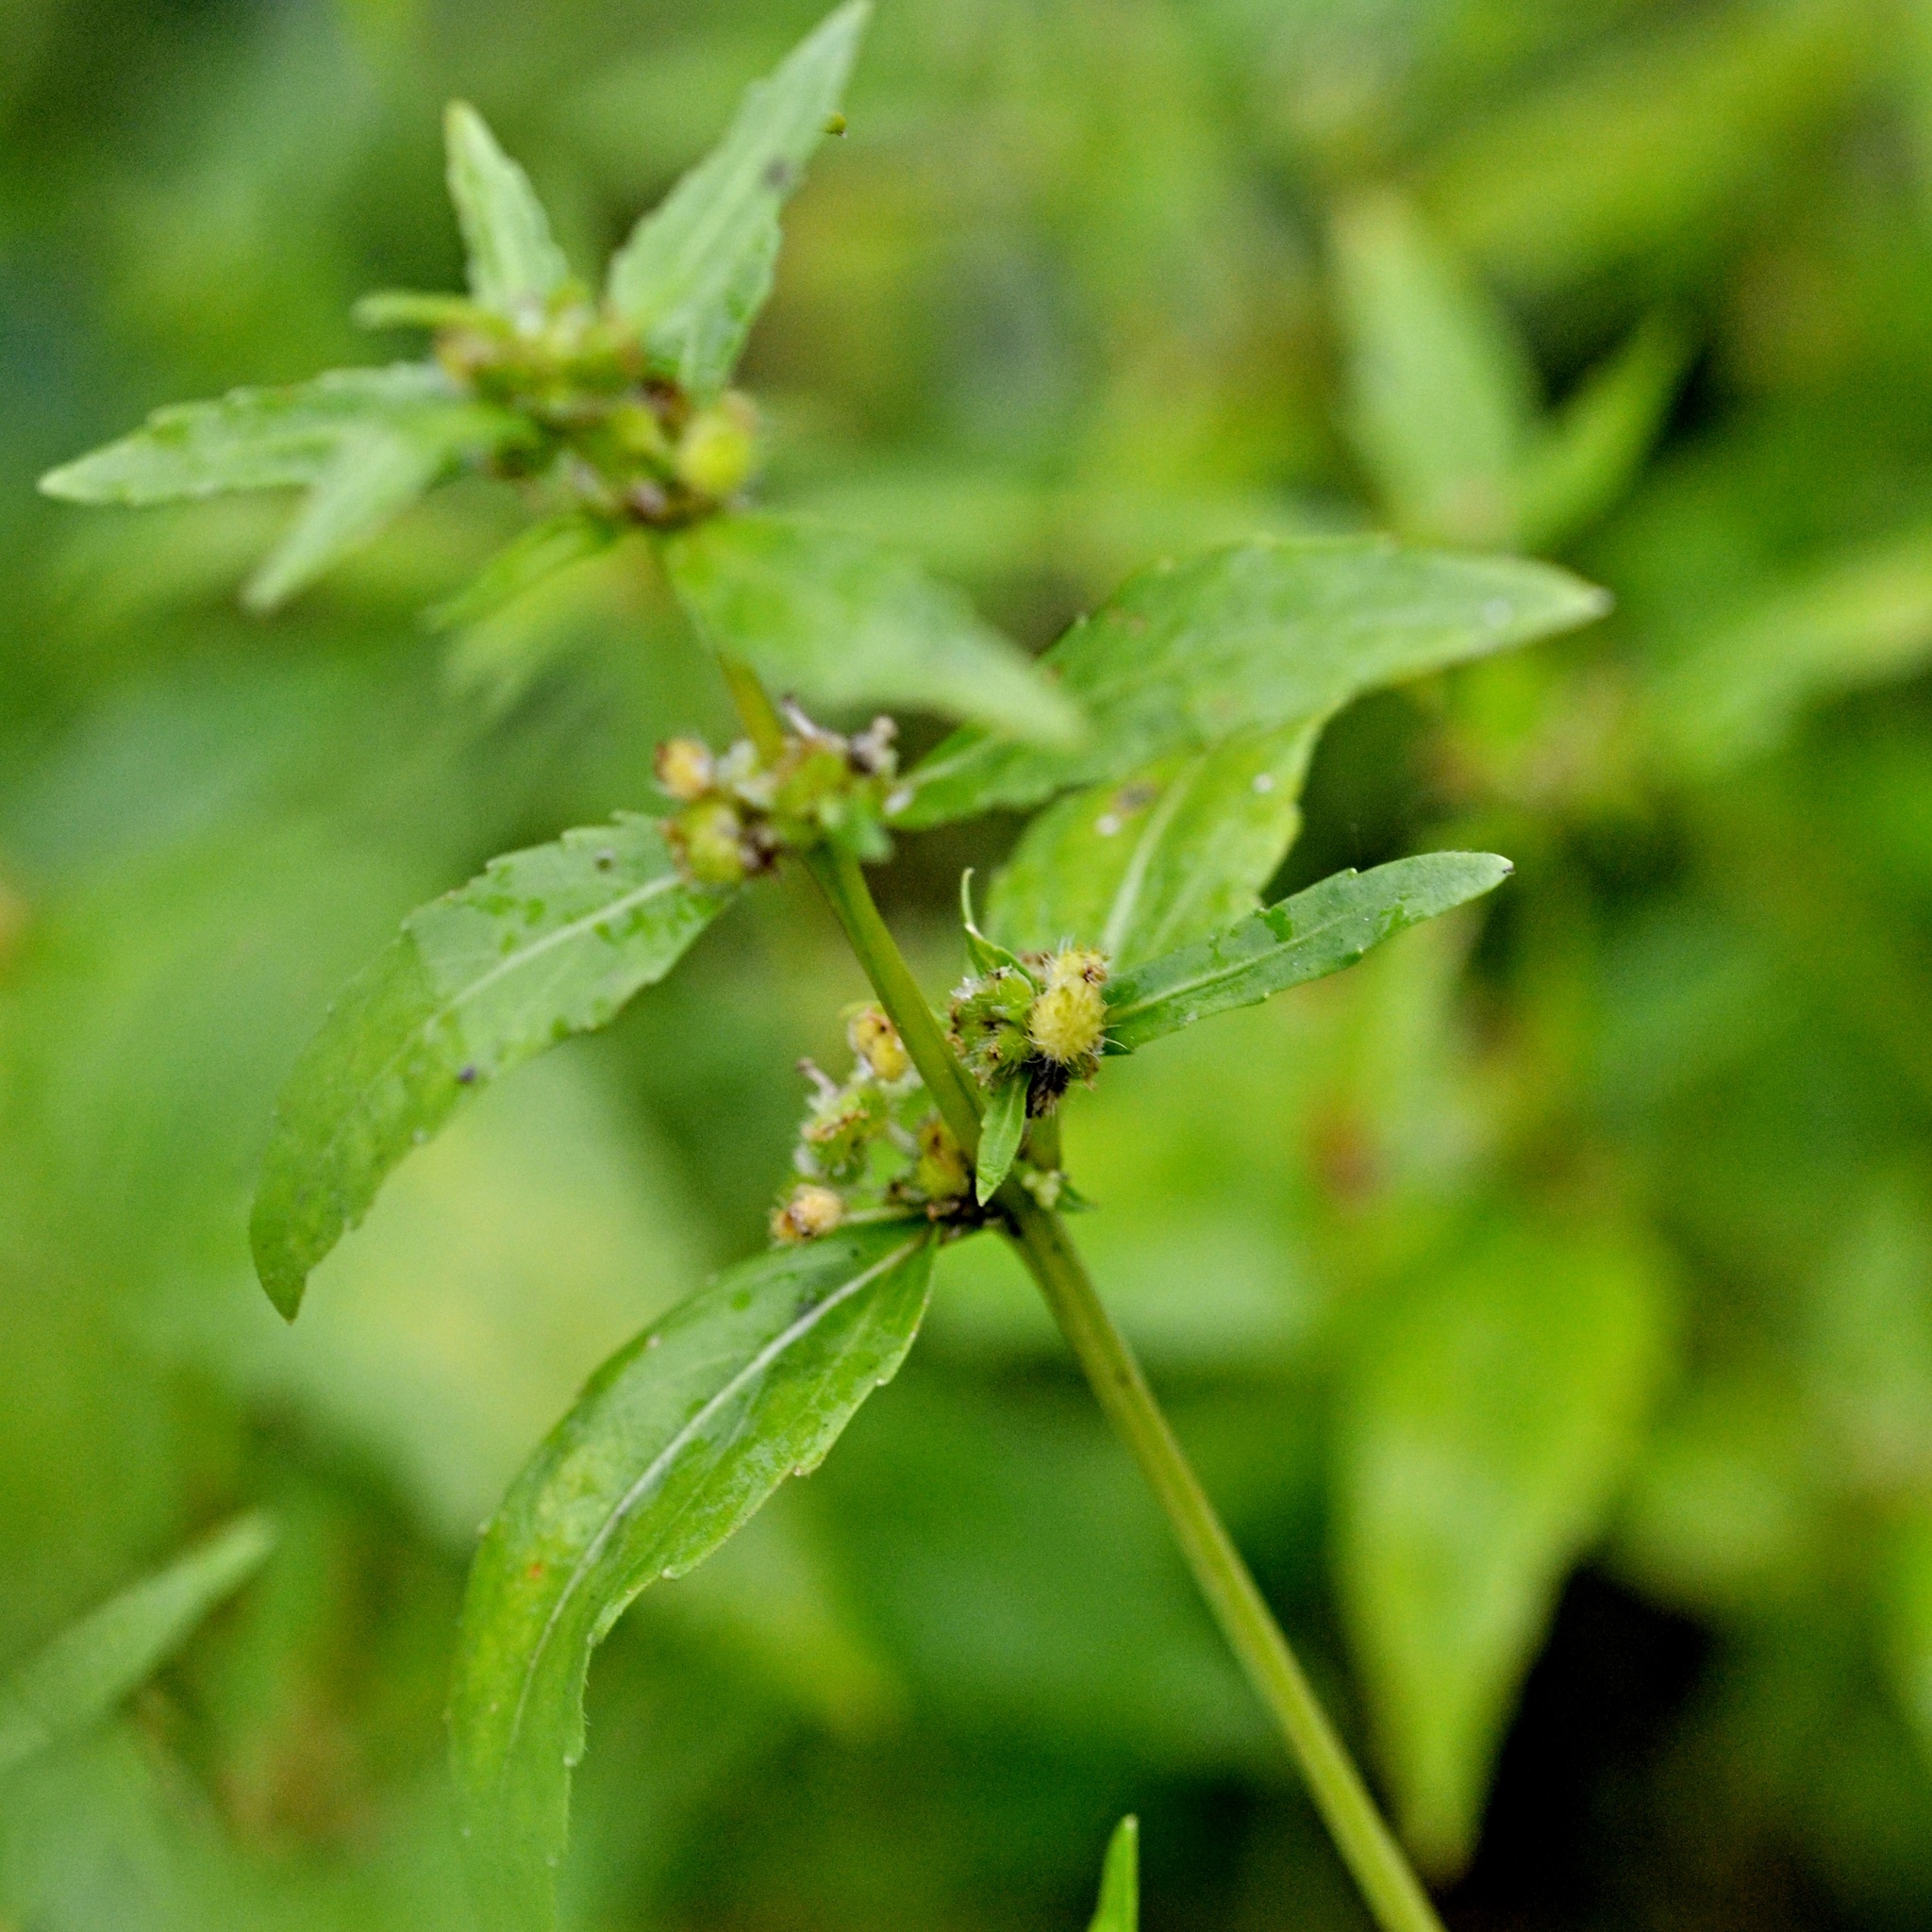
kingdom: Plantae
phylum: Tracheophyta
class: Magnoliopsida
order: Malpighiales
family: Euphorbiaceae
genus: Mercurialis
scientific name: Mercurialis annua
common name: Annual mercury
